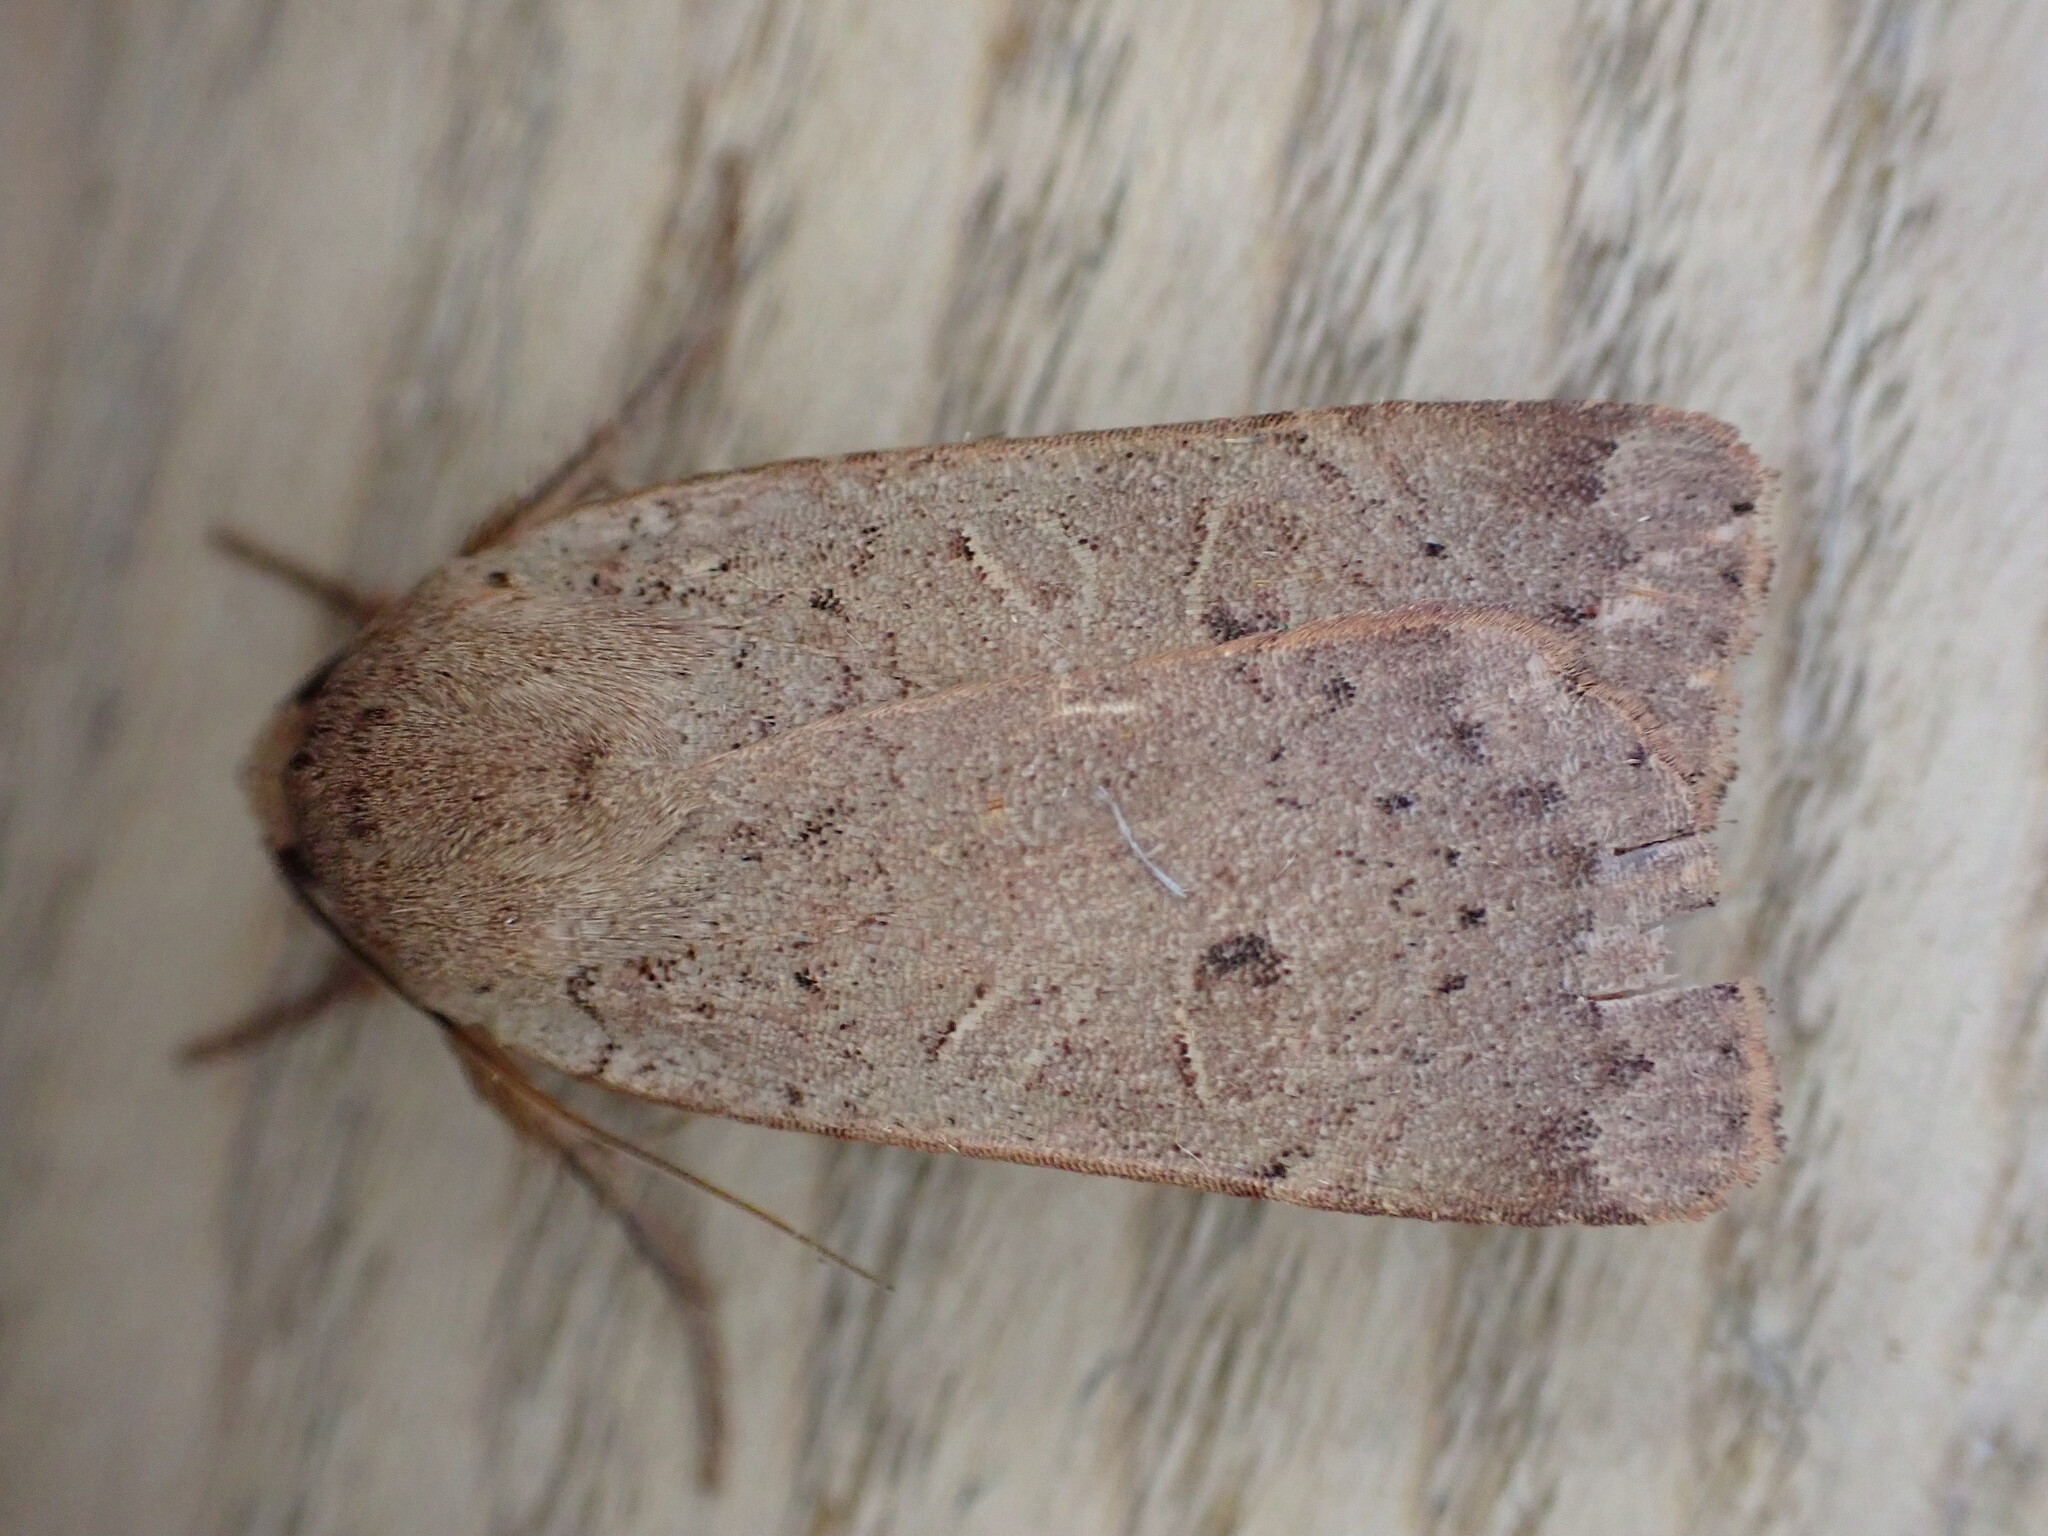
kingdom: Animalia
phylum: Arthropoda
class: Insecta
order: Lepidoptera
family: Noctuidae
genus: Noctua
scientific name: Noctua comes
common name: Lesser yellow underwing
